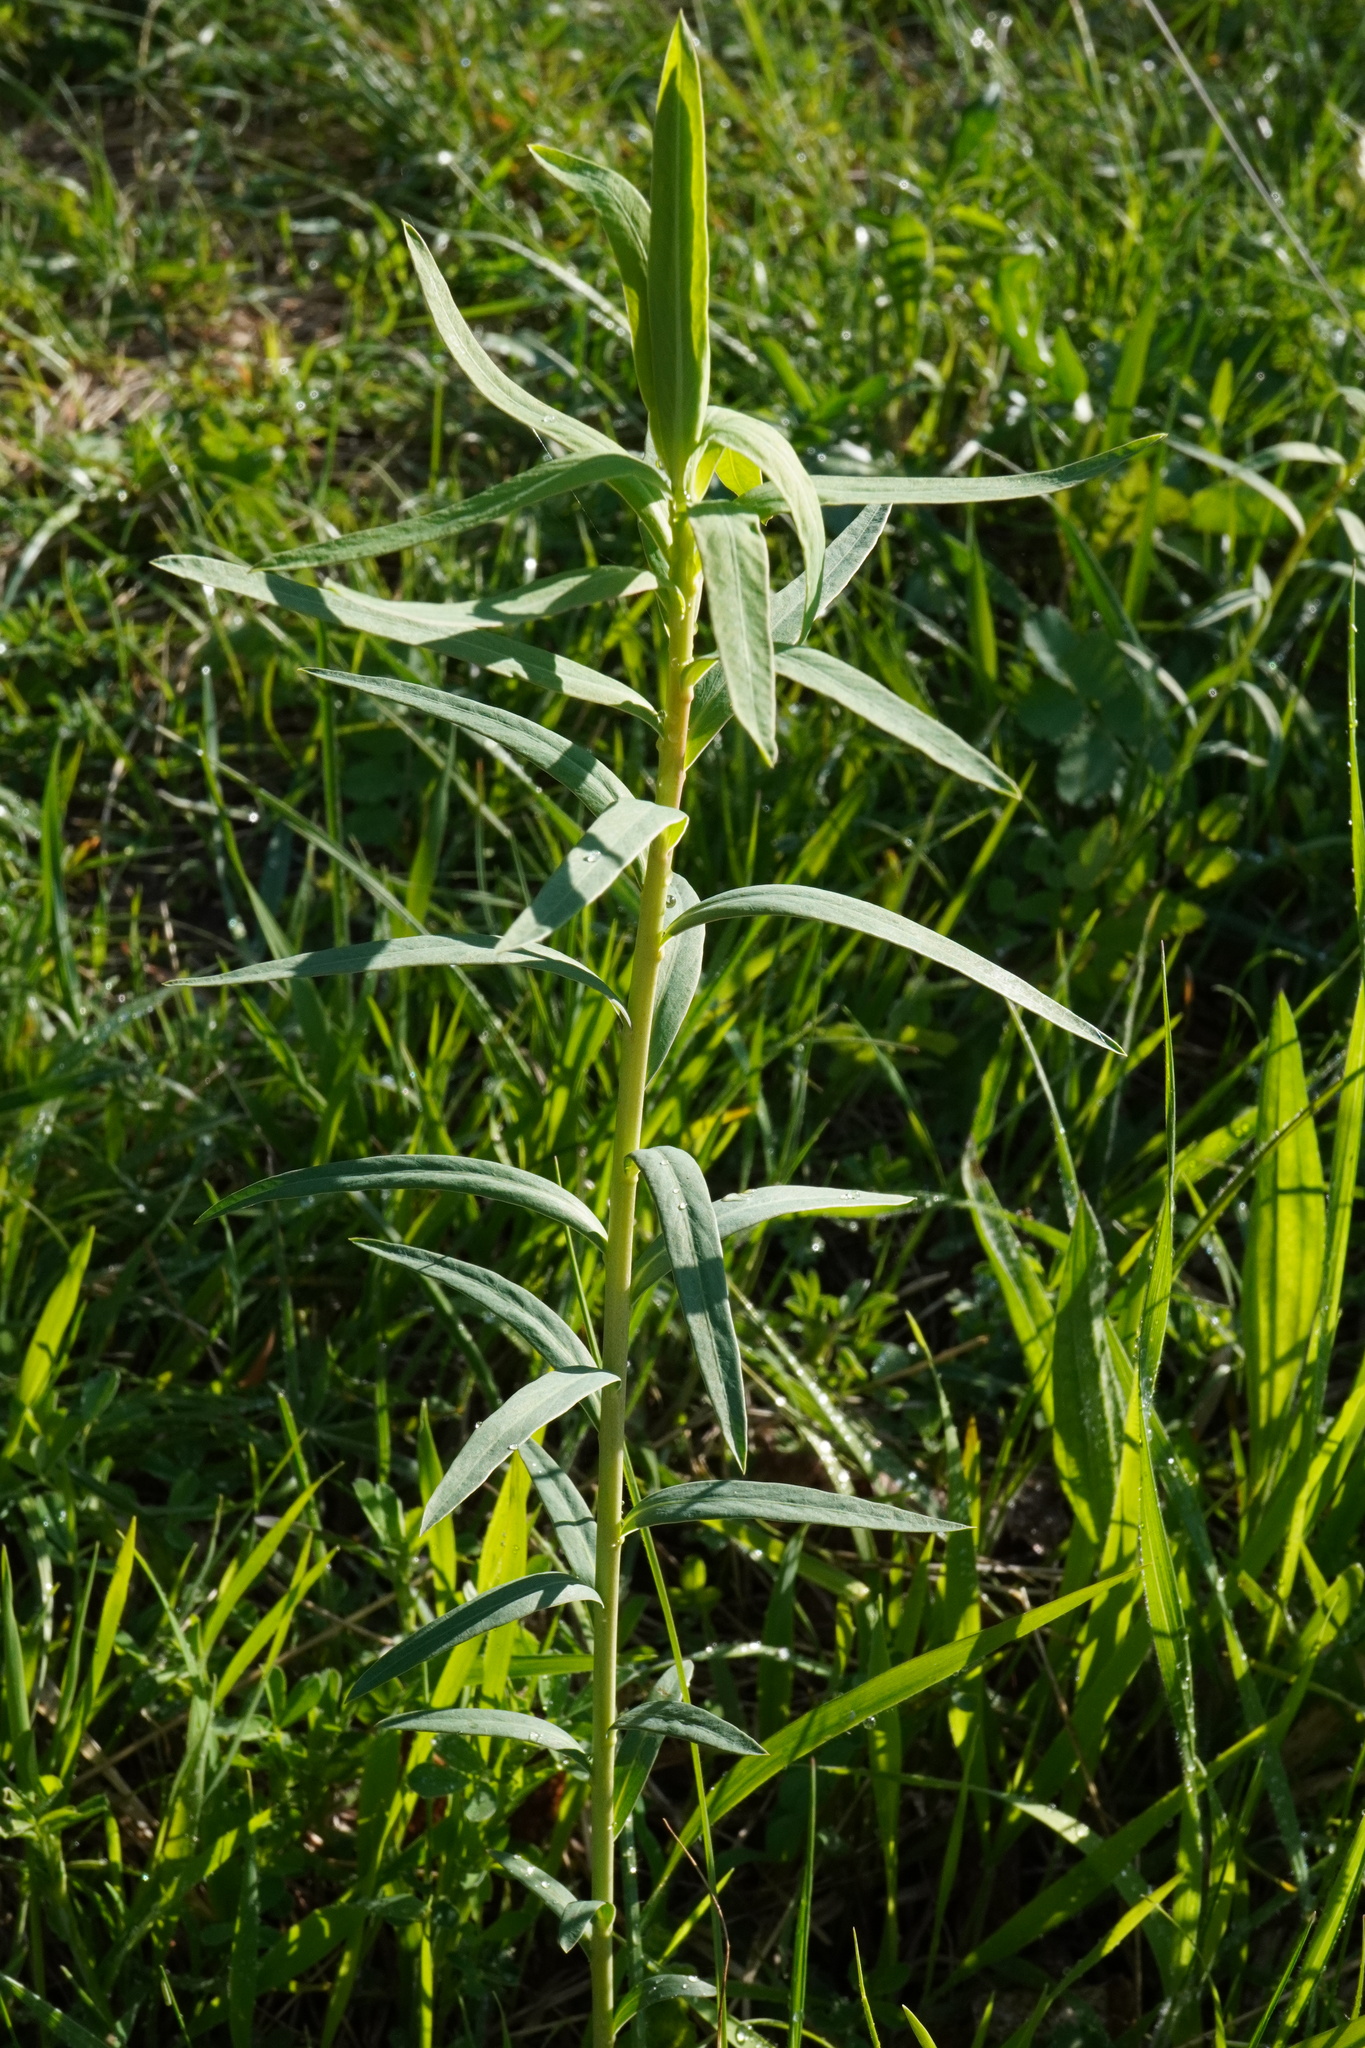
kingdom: Plantae
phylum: Tracheophyta
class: Magnoliopsida
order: Malpighiales
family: Euphorbiaceae
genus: Euphorbia
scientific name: Euphorbia virgata
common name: Leafy spurge
